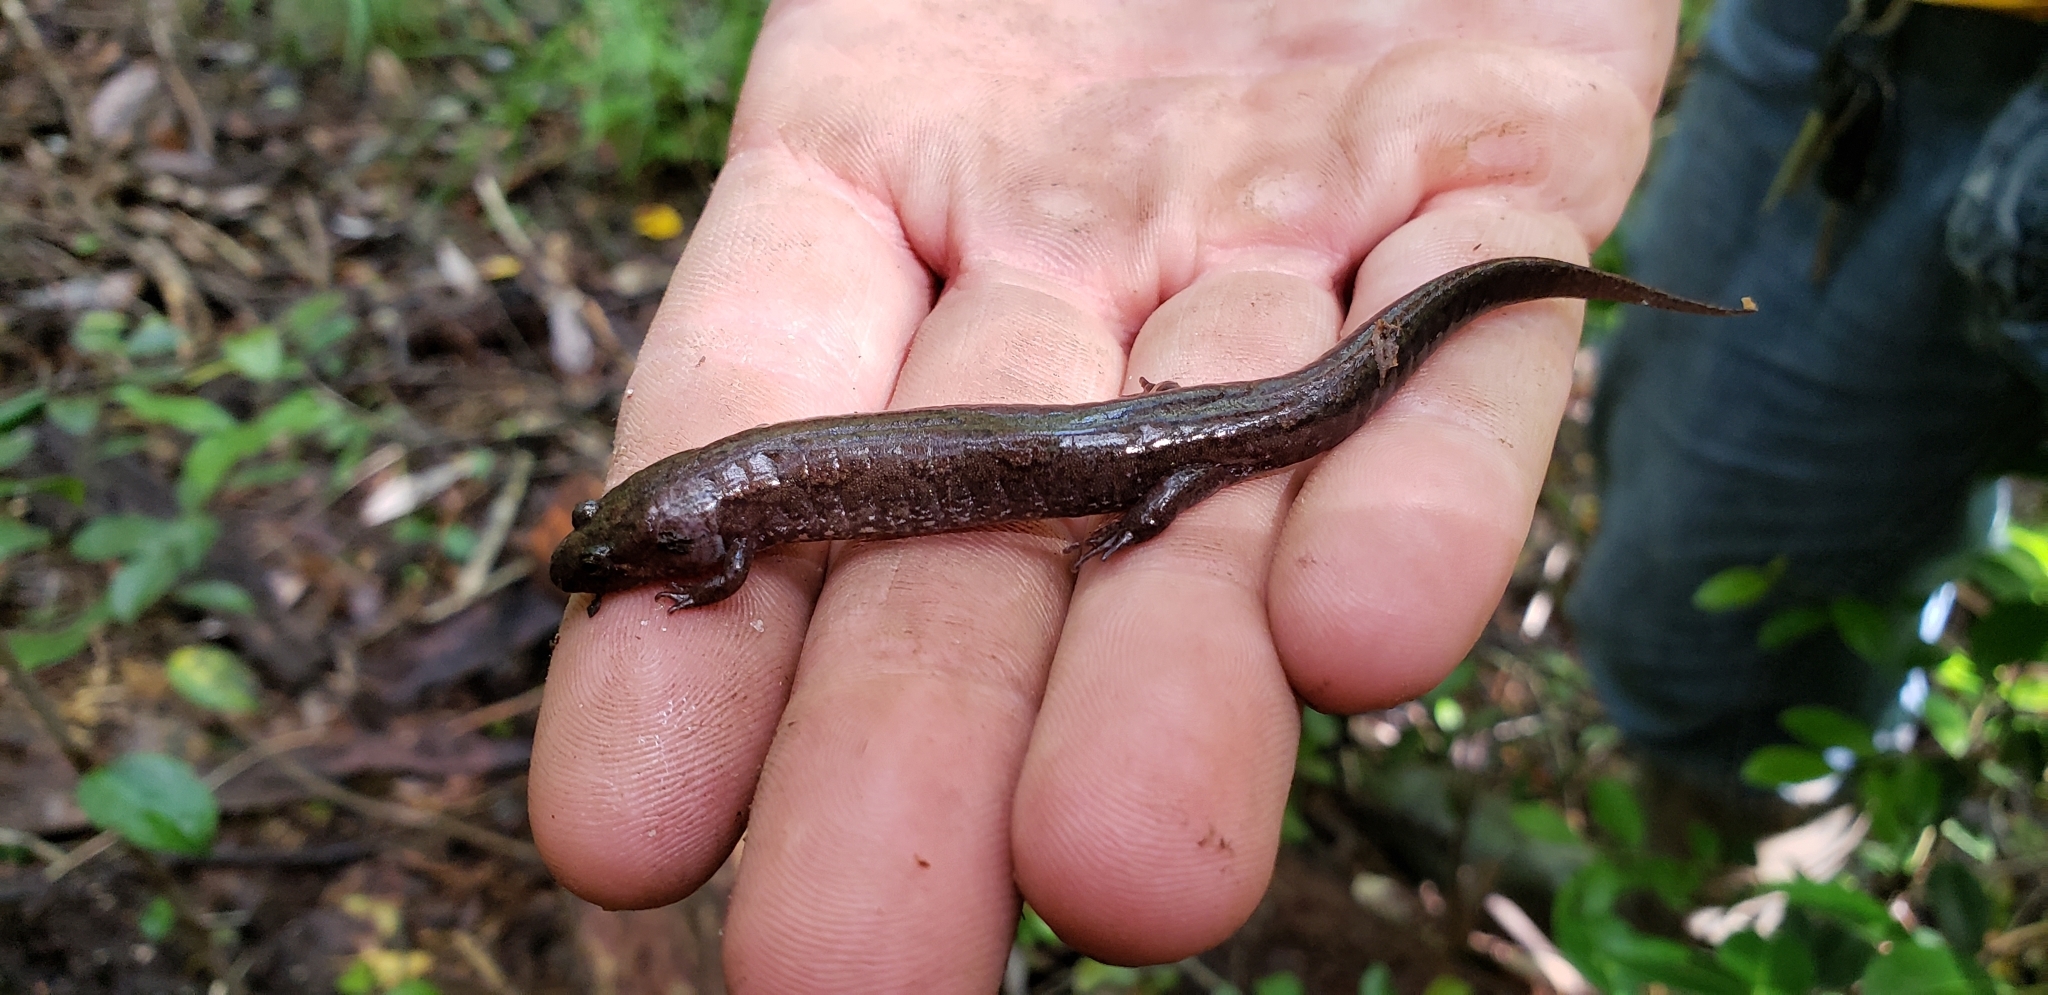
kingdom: Animalia
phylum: Chordata
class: Amphibia
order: Caudata
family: Plethodontidae
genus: Desmognathus
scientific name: Desmognathus conanti
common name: Spotted dusky salamander
